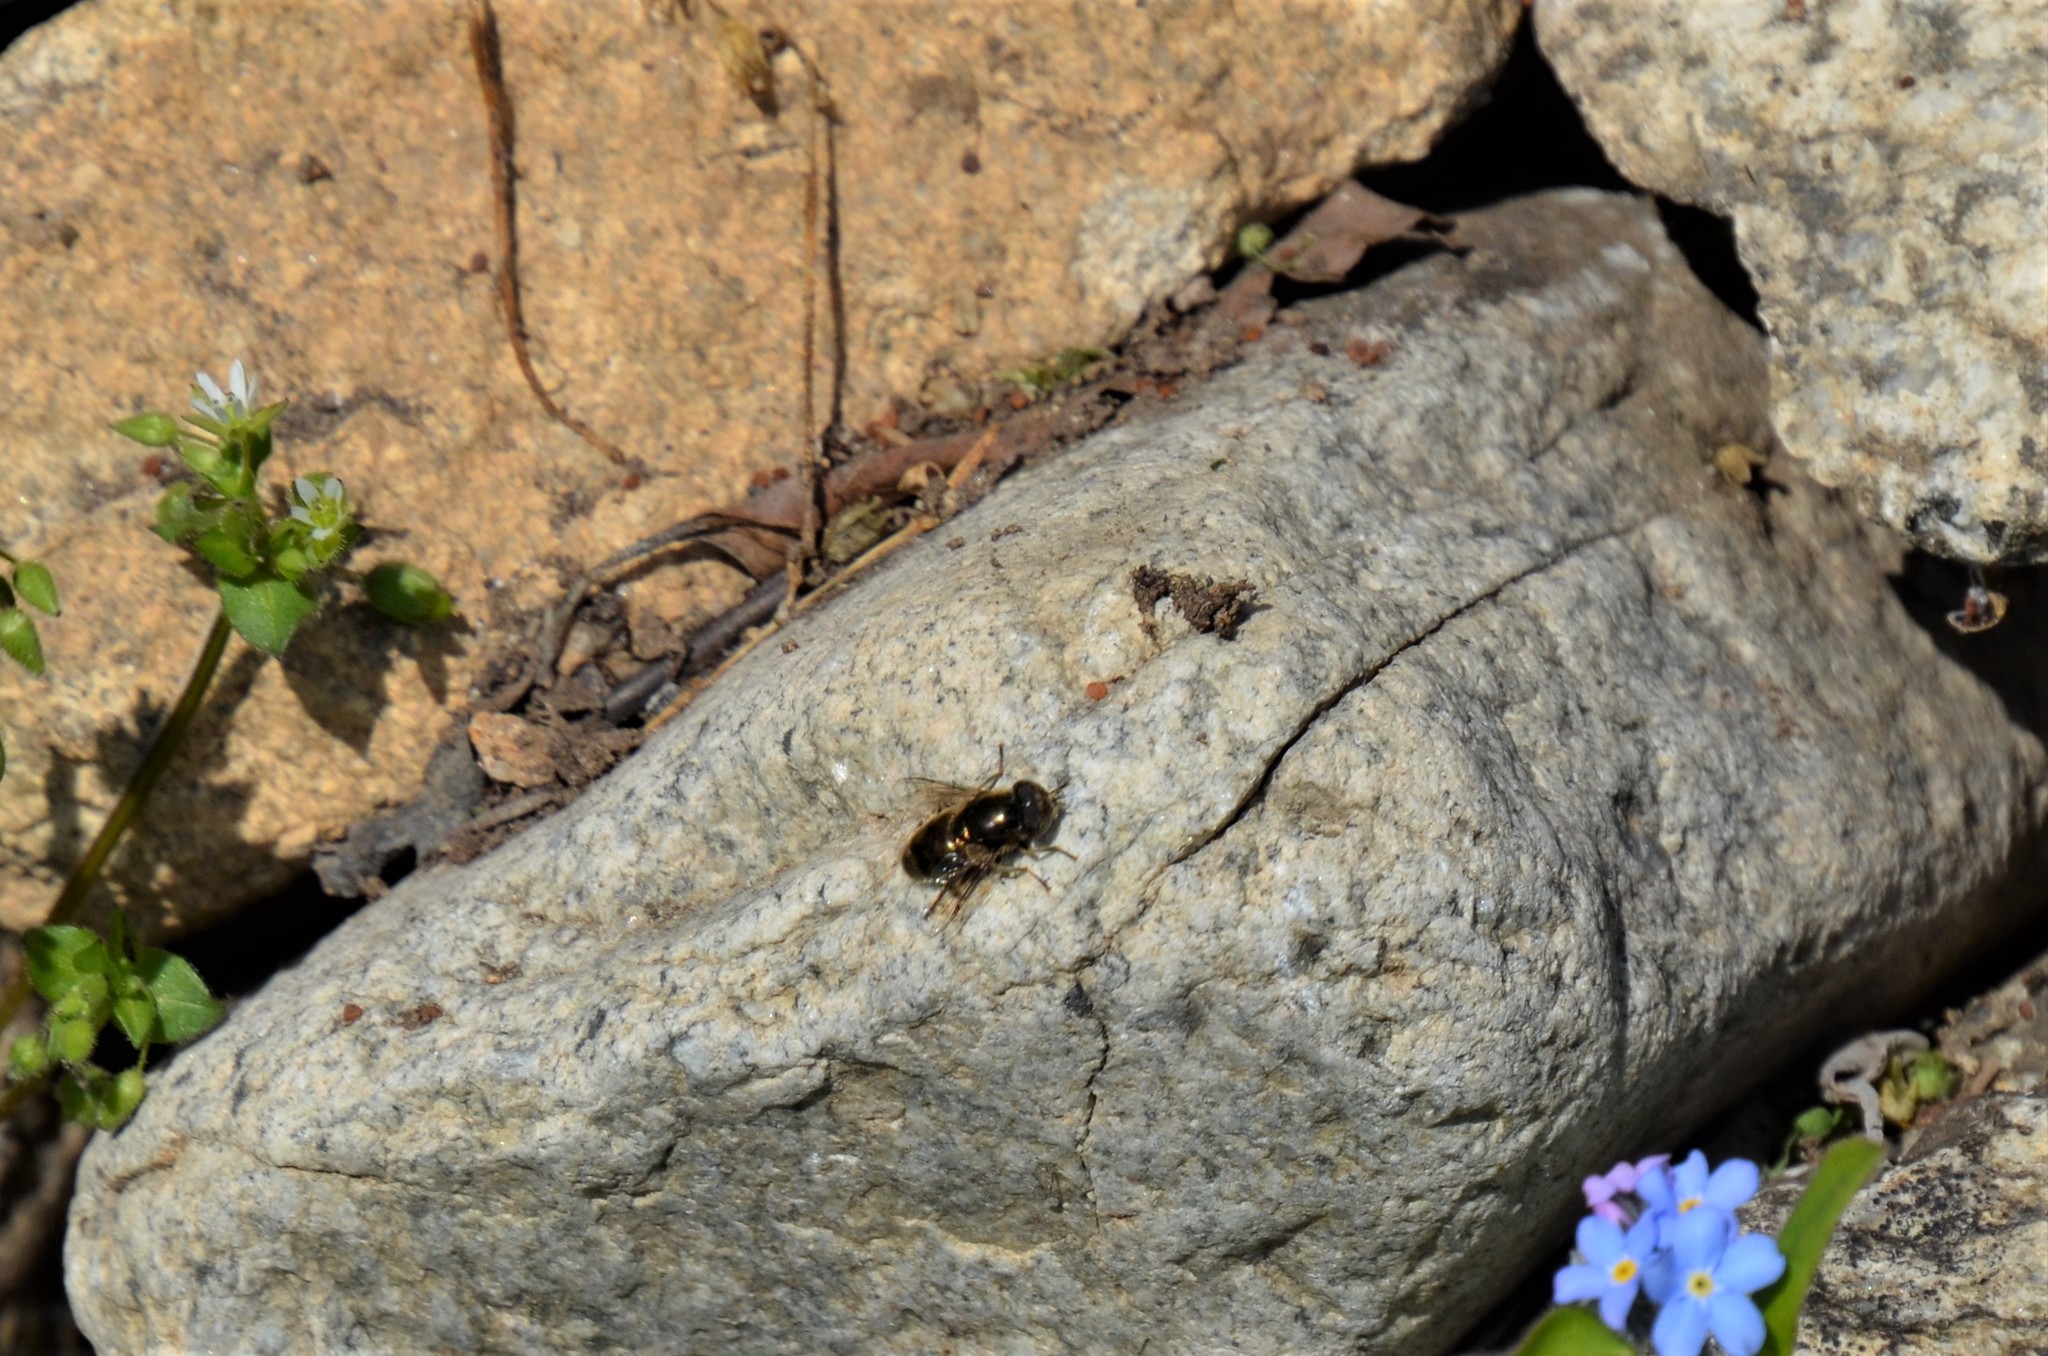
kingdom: Animalia
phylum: Arthropoda
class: Insecta
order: Diptera
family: Syrphidae
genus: Eristalinus
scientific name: Eristalinus aeneus
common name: Syrphid fly
